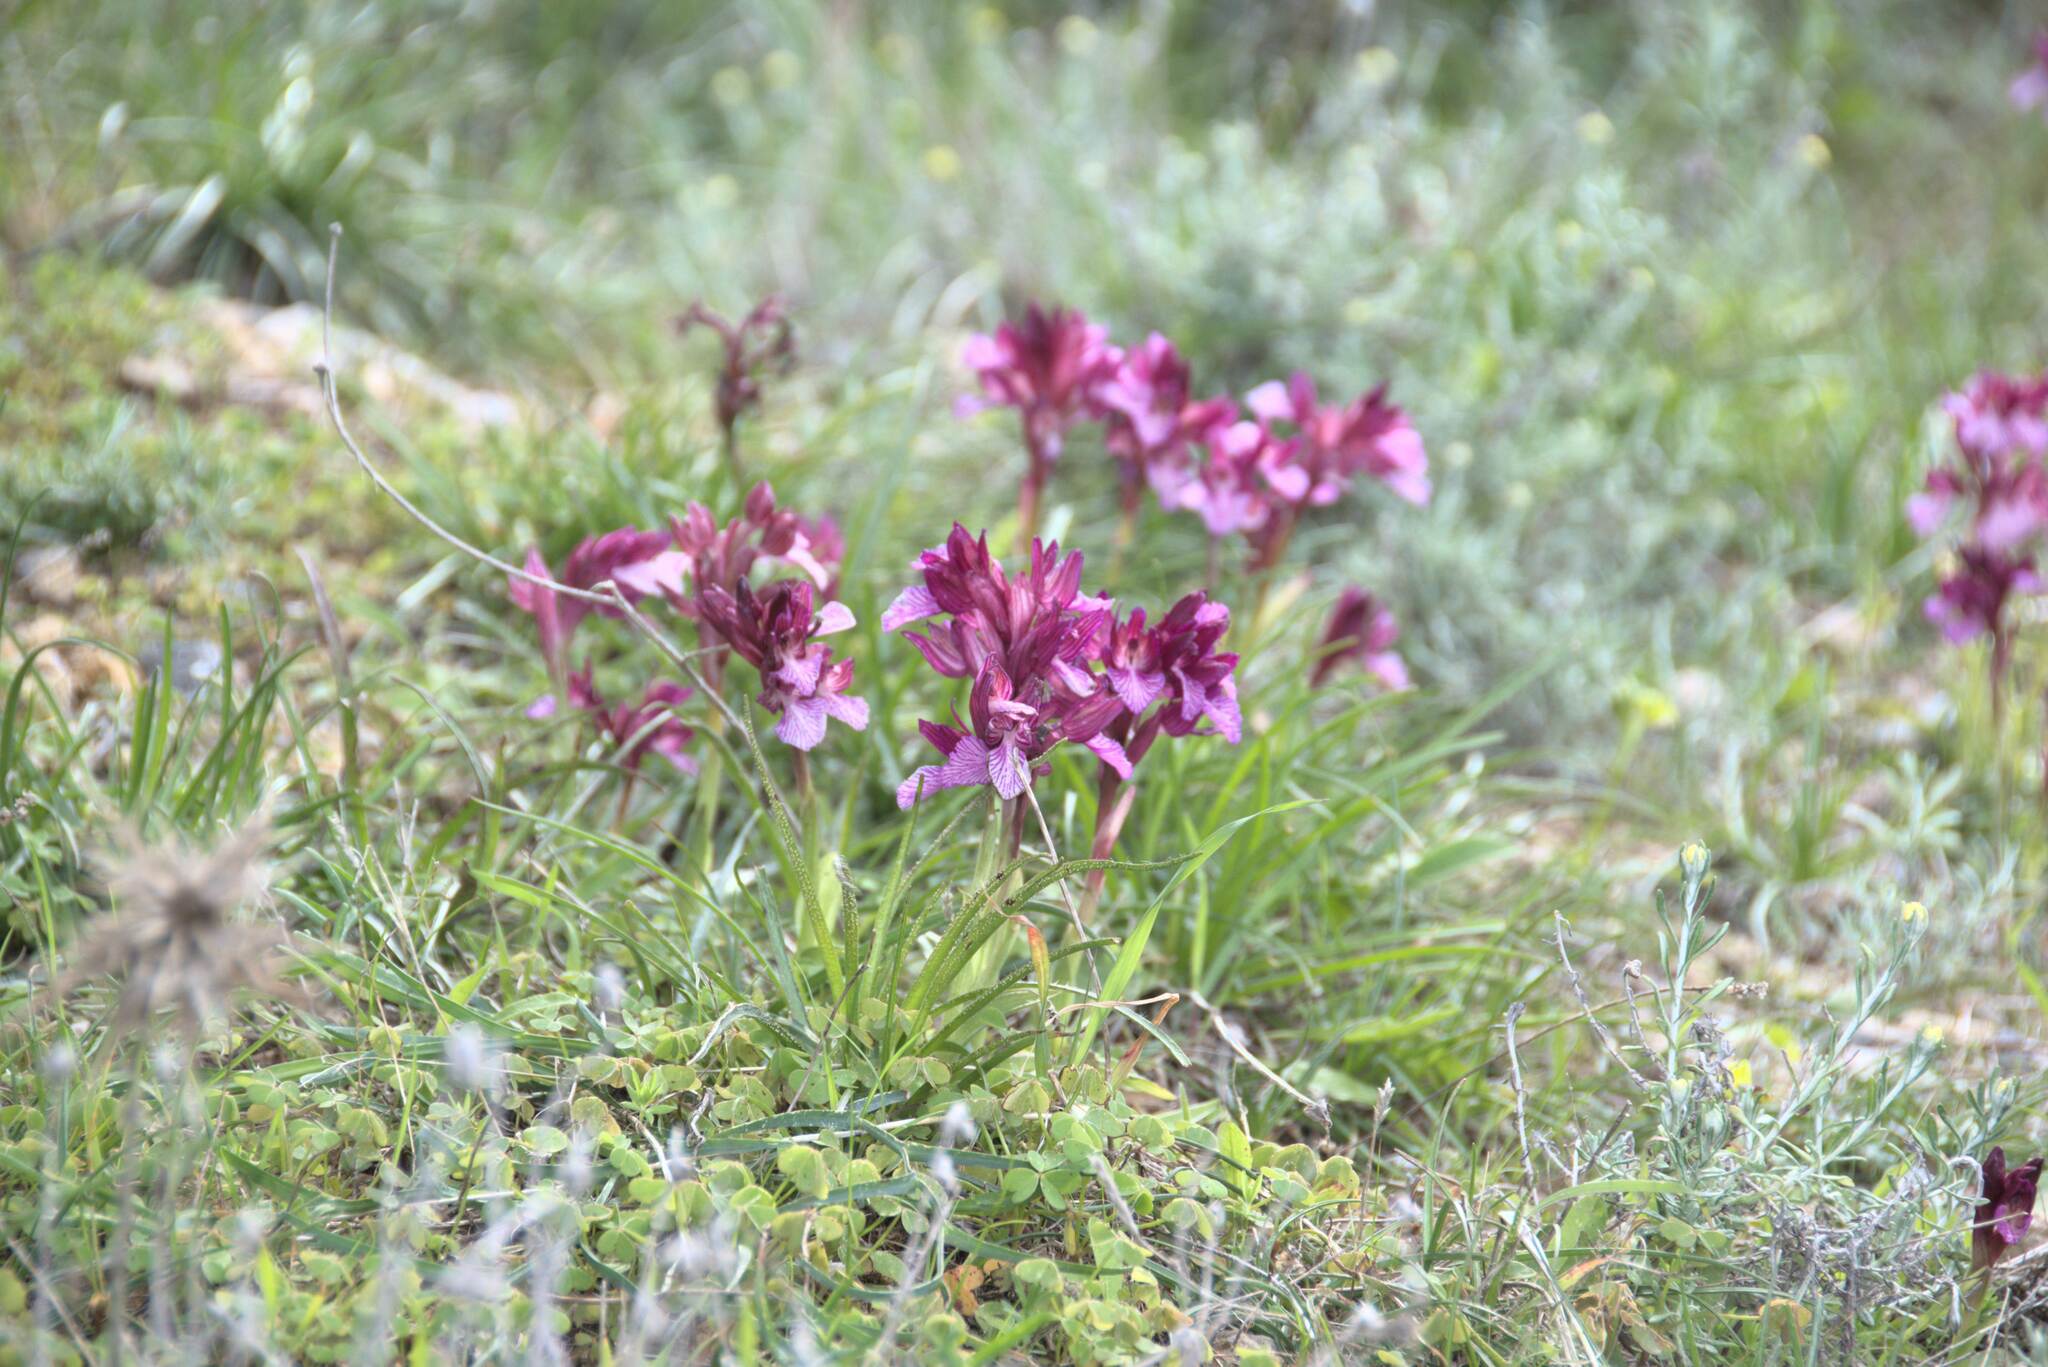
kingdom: Plantae
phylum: Tracheophyta
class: Liliopsida
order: Asparagales
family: Orchidaceae
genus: Anacamptis
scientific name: Anacamptis papilionacea
